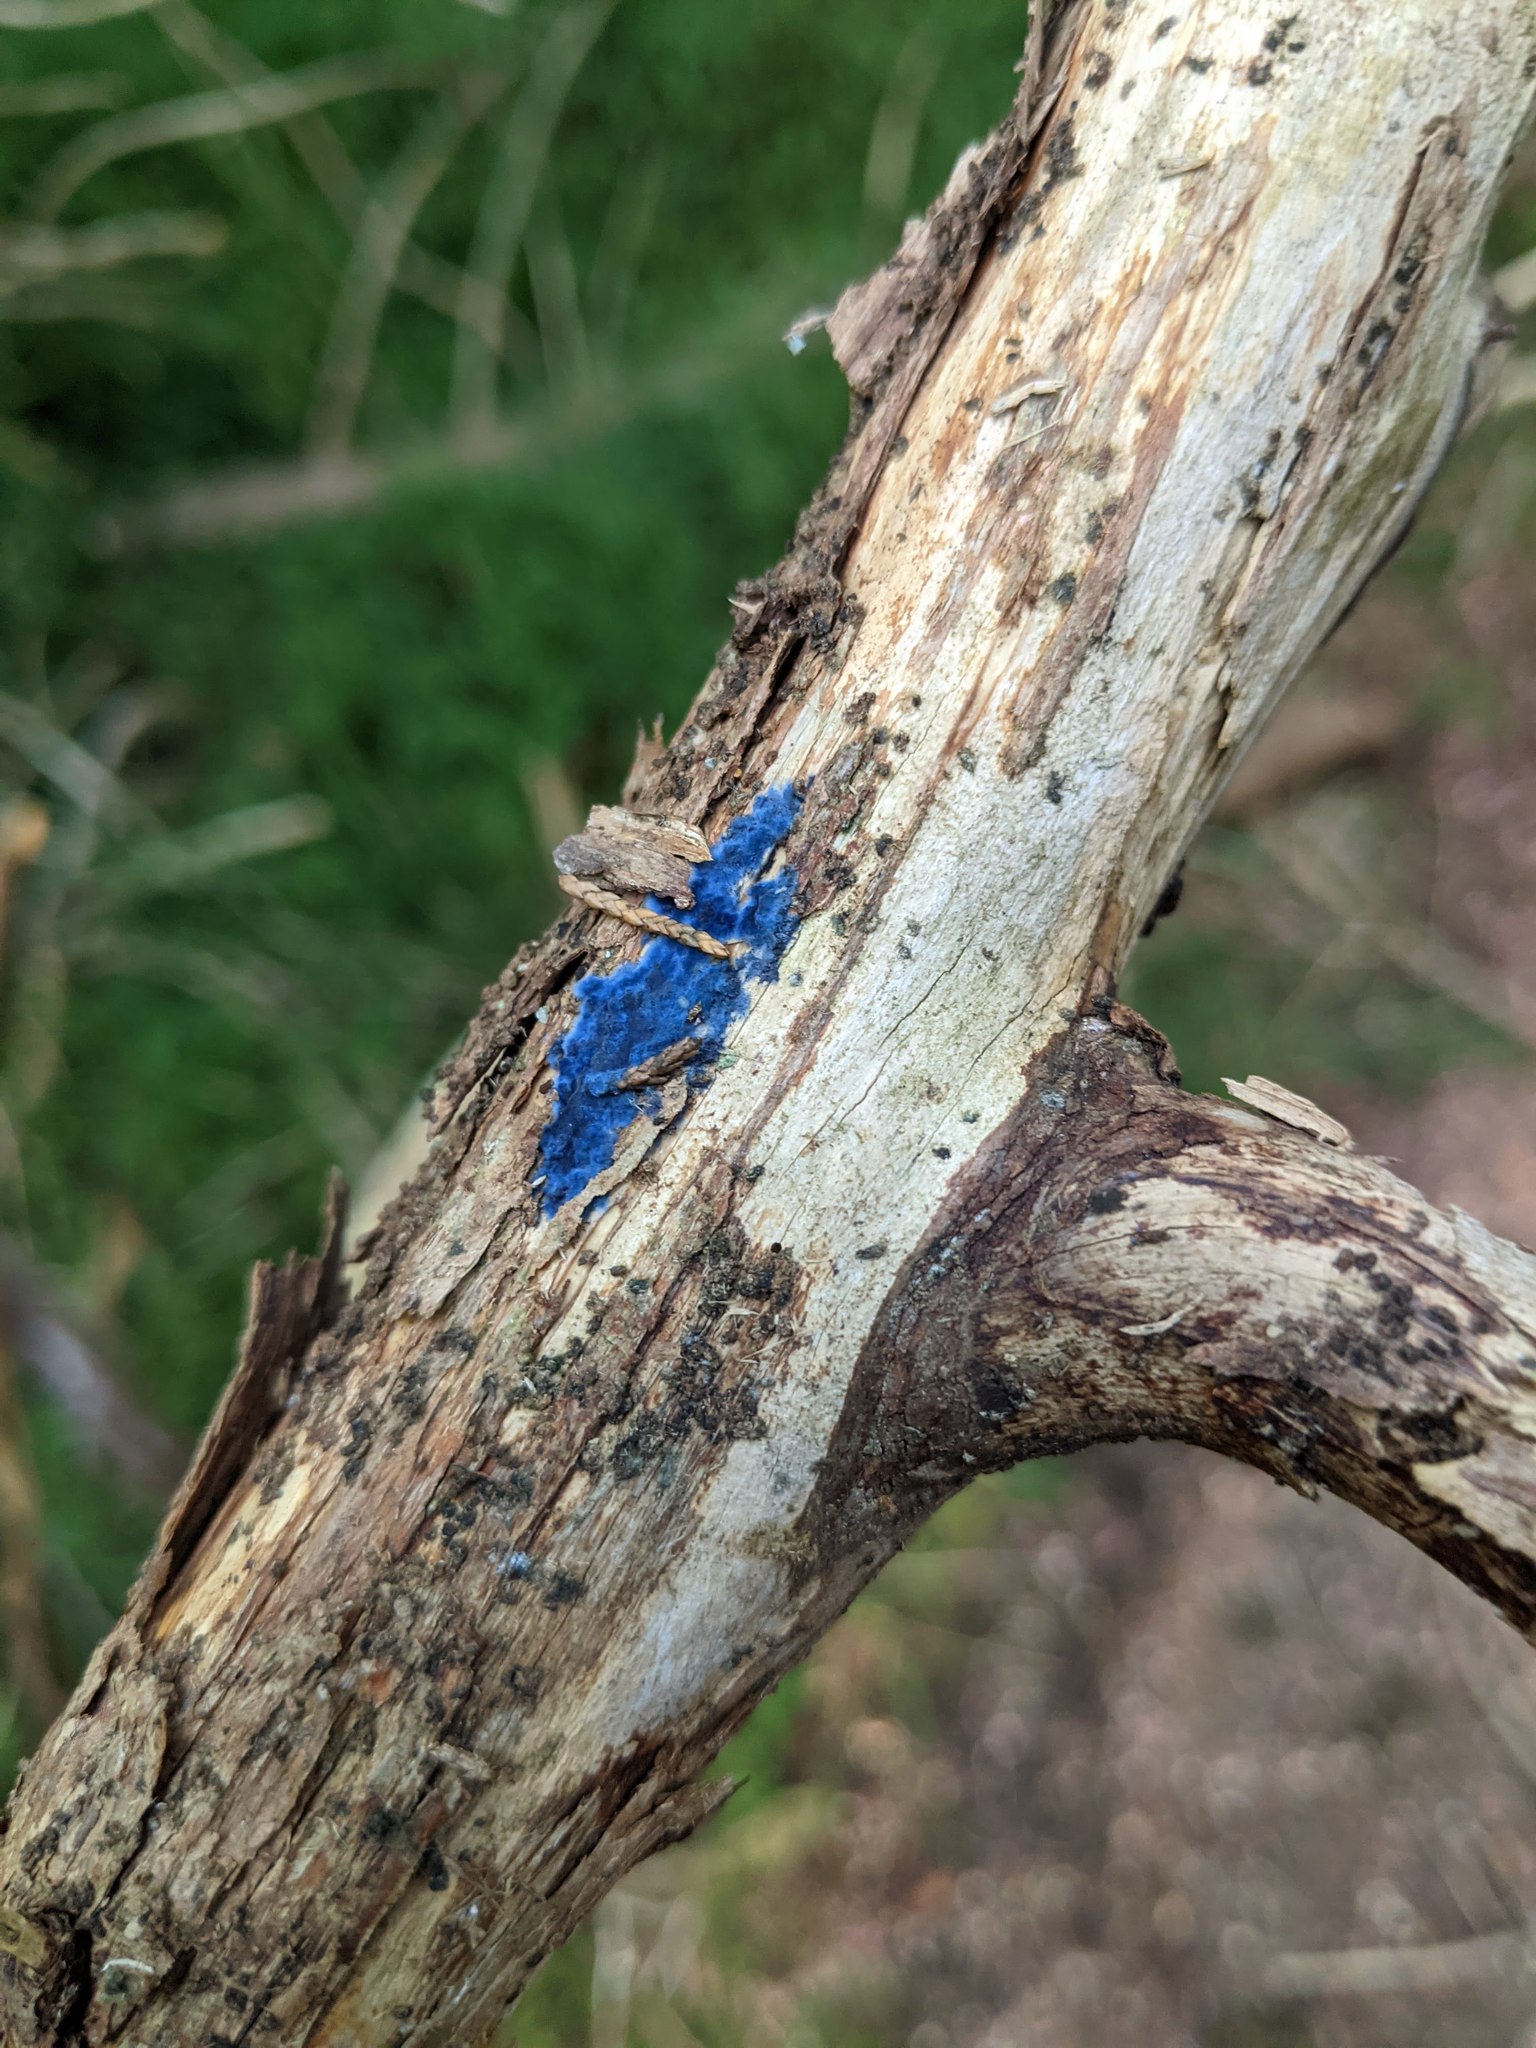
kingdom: Fungi
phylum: Basidiomycota
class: Agaricomycetes
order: Polyporales
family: Phanerochaetaceae
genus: Terana
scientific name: Terana coerulea
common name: Cobalt crust
